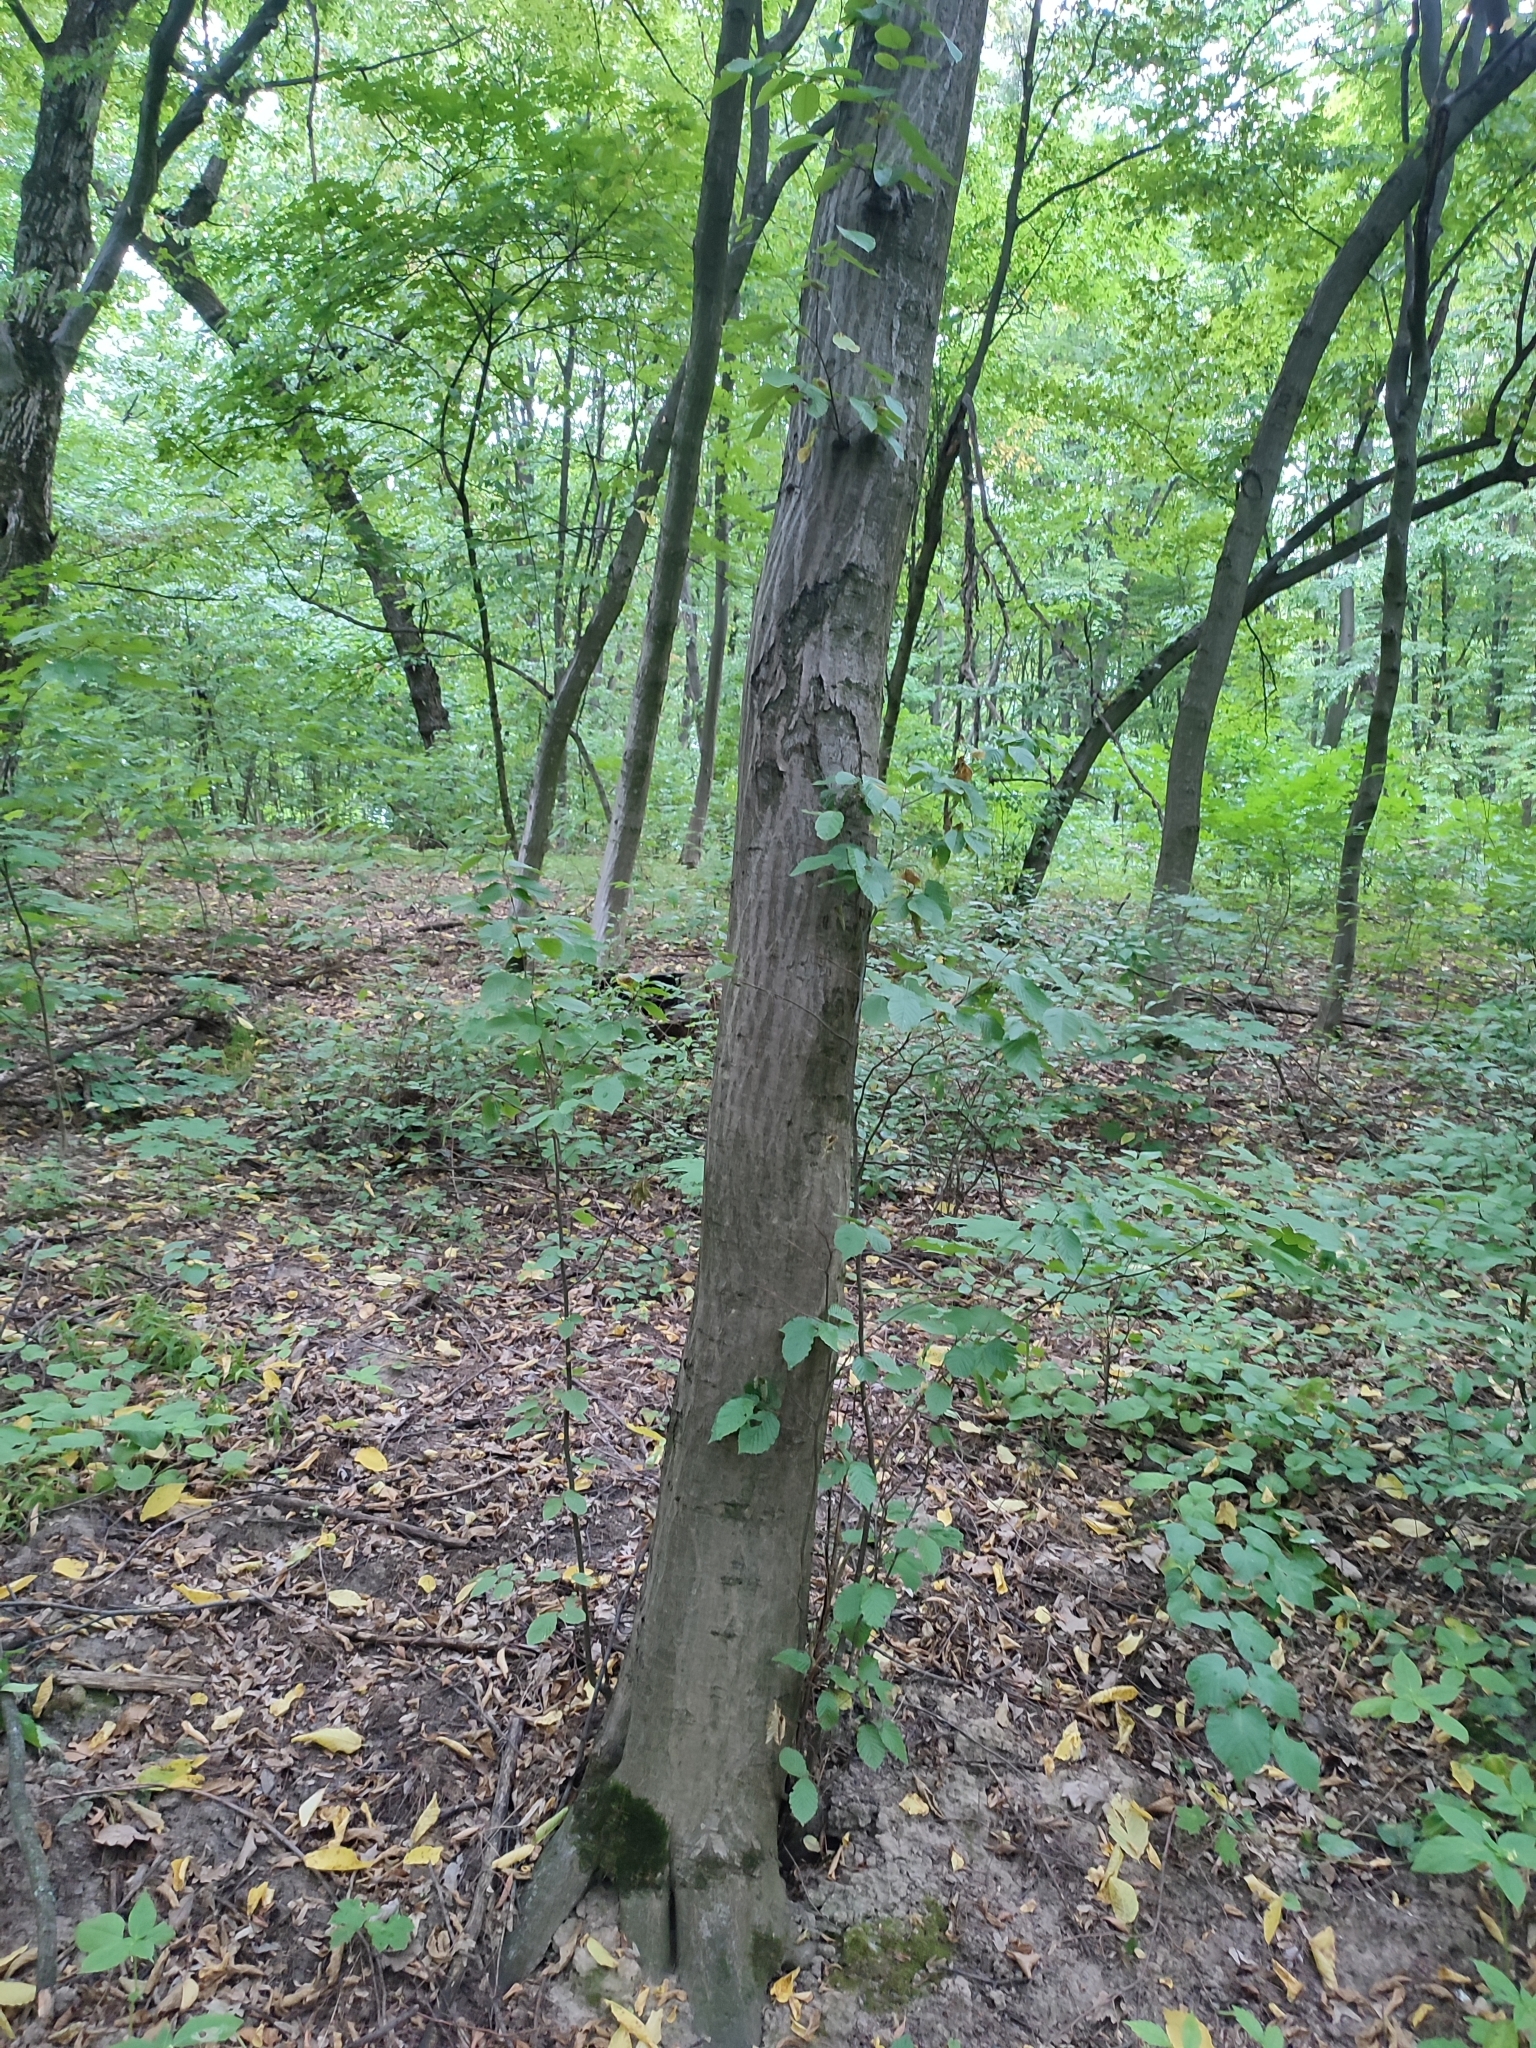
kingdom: Plantae
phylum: Tracheophyta
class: Magnoliopsida
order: Fagales
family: Betulaceae
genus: Carpinus
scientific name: Carpinus betulus
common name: Hornbeam
